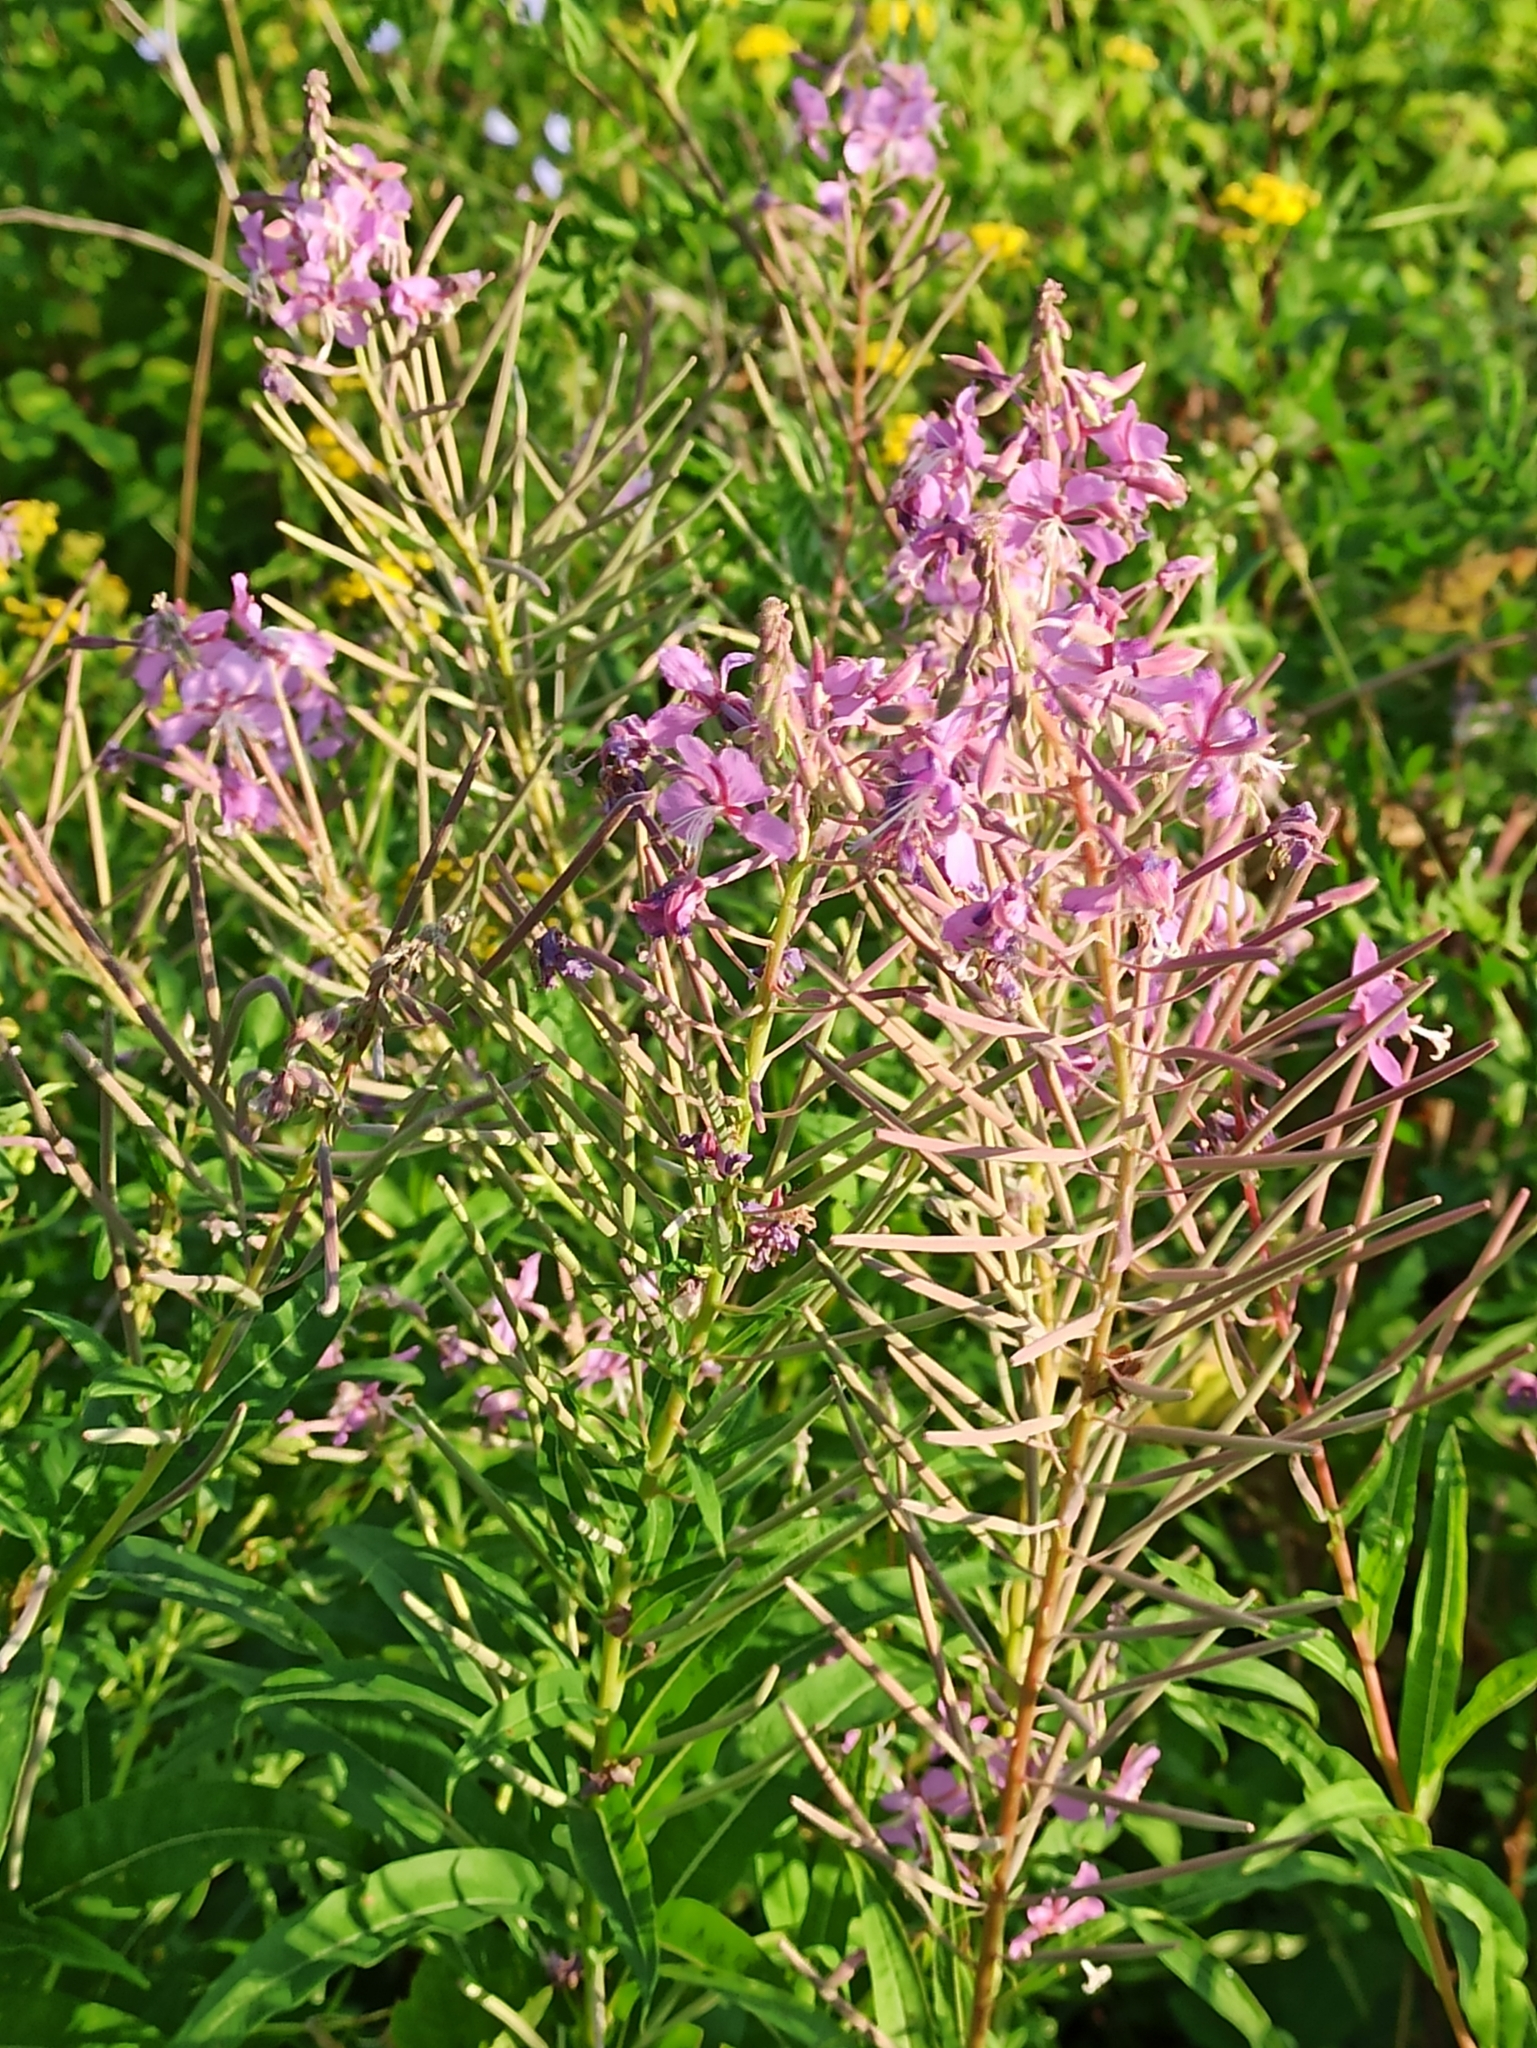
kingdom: Plantae
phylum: Tracheophyta
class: Magnoliopsida
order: Myrtales
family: Onagraceae
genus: Chamaenerion
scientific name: Chamaenerion angustifolium
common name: Fireweed
